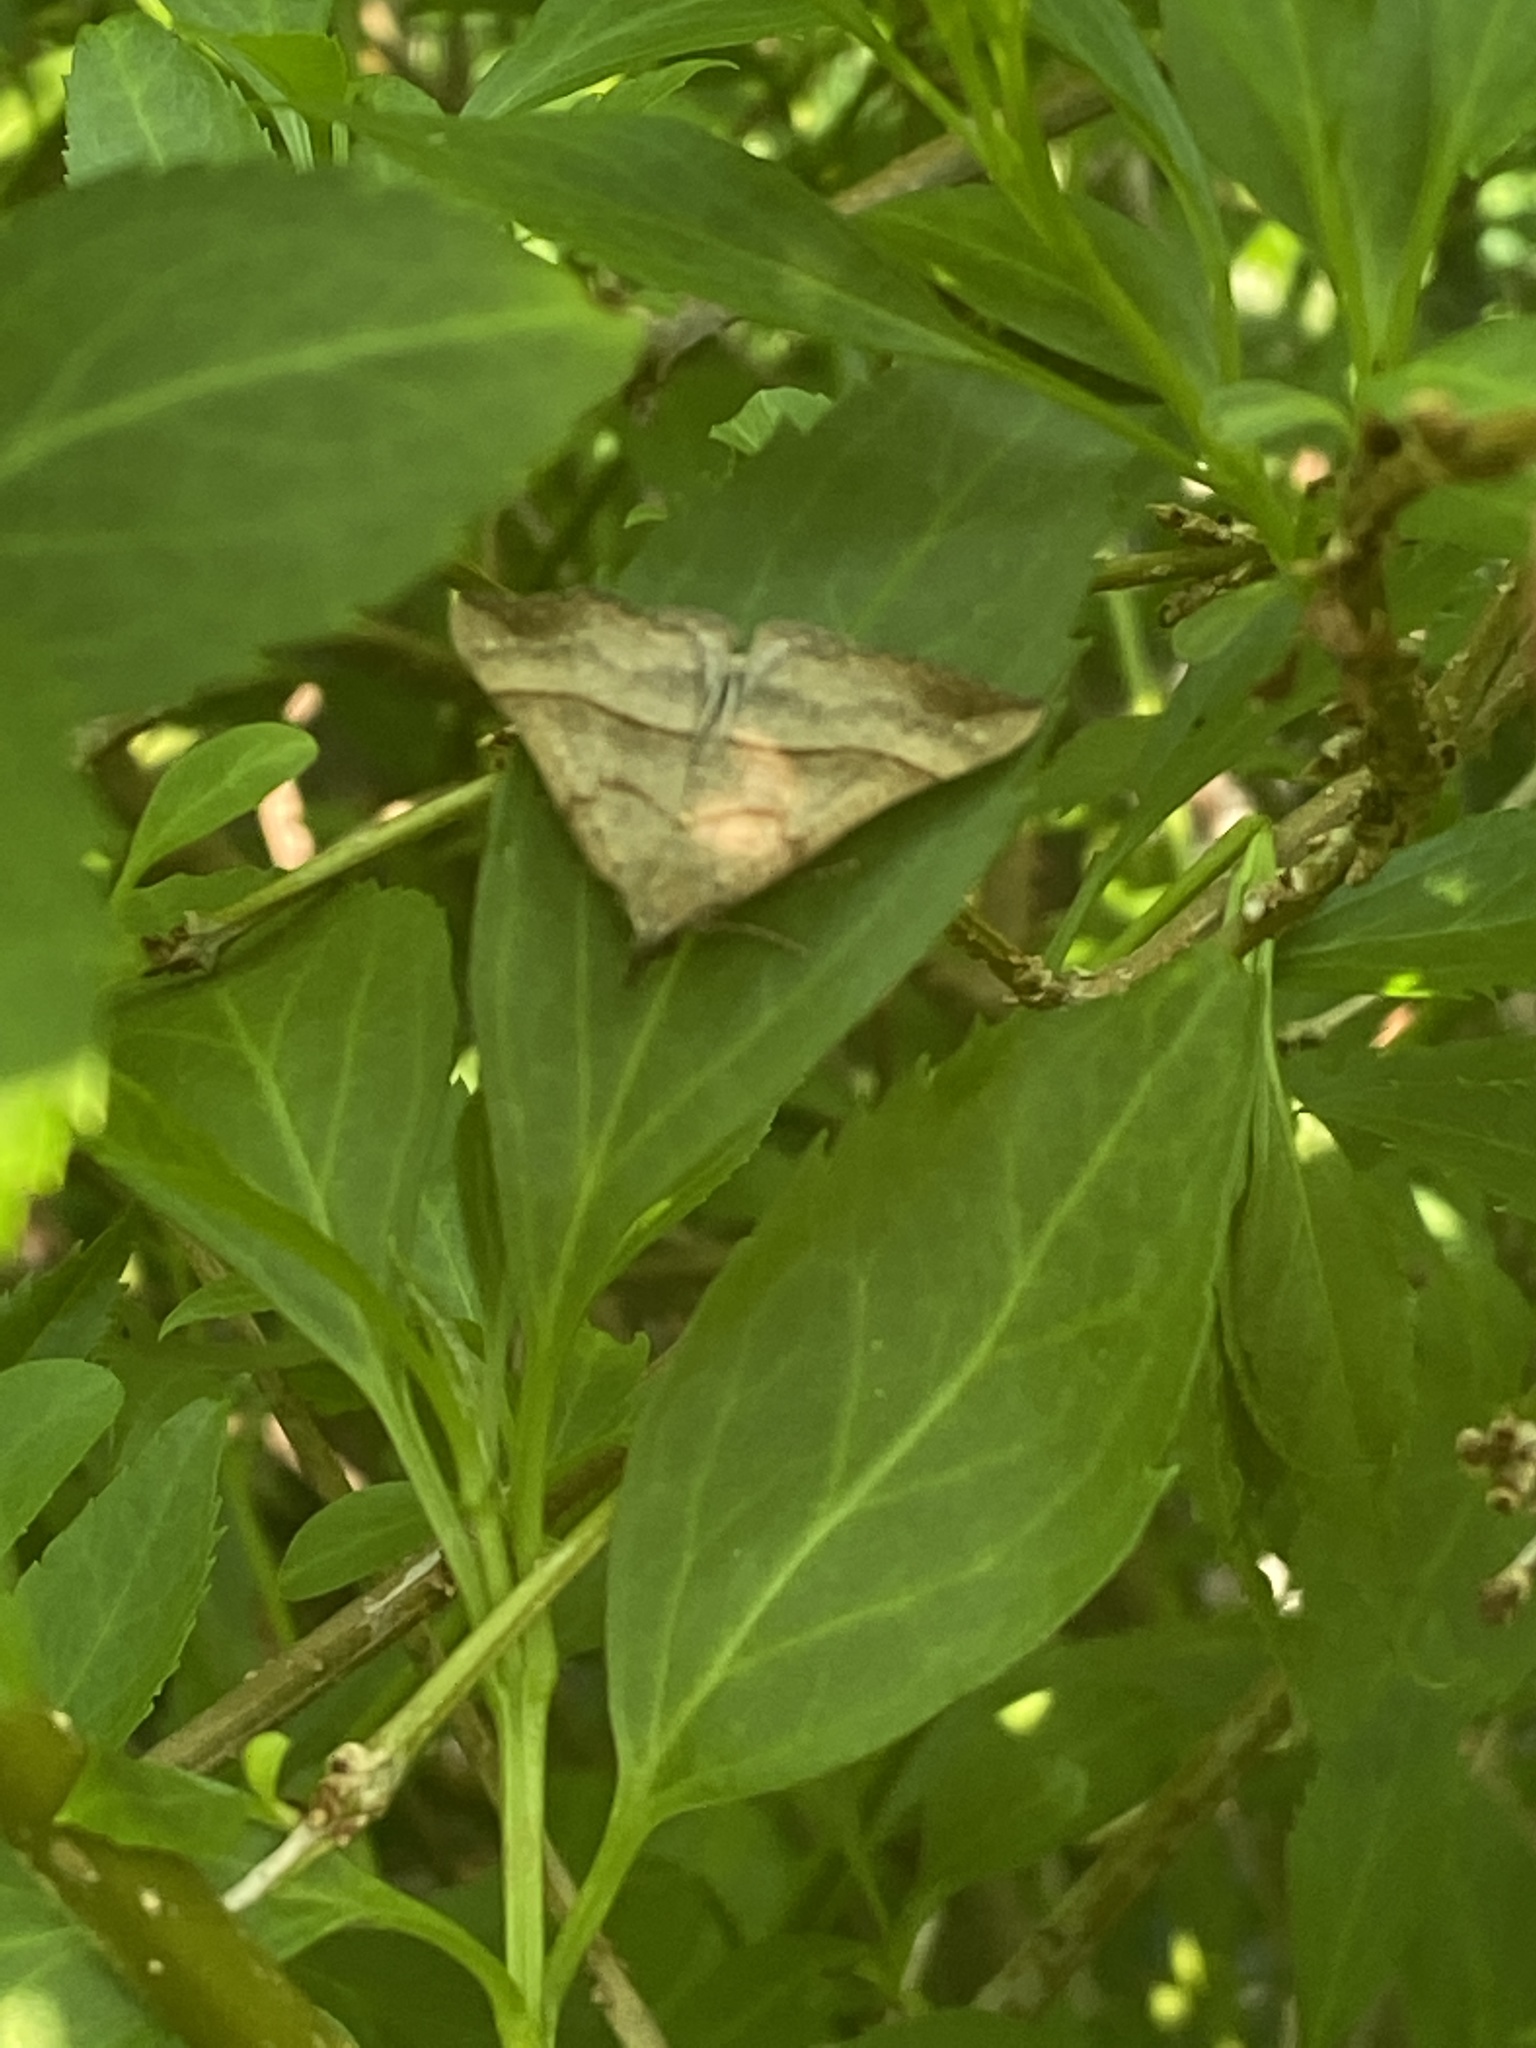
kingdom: Animalia
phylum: Arthropoda
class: Insecta
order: Lepidoptera
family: Erebidae
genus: Hypena
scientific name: Hypena proboscidalis
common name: Snout
